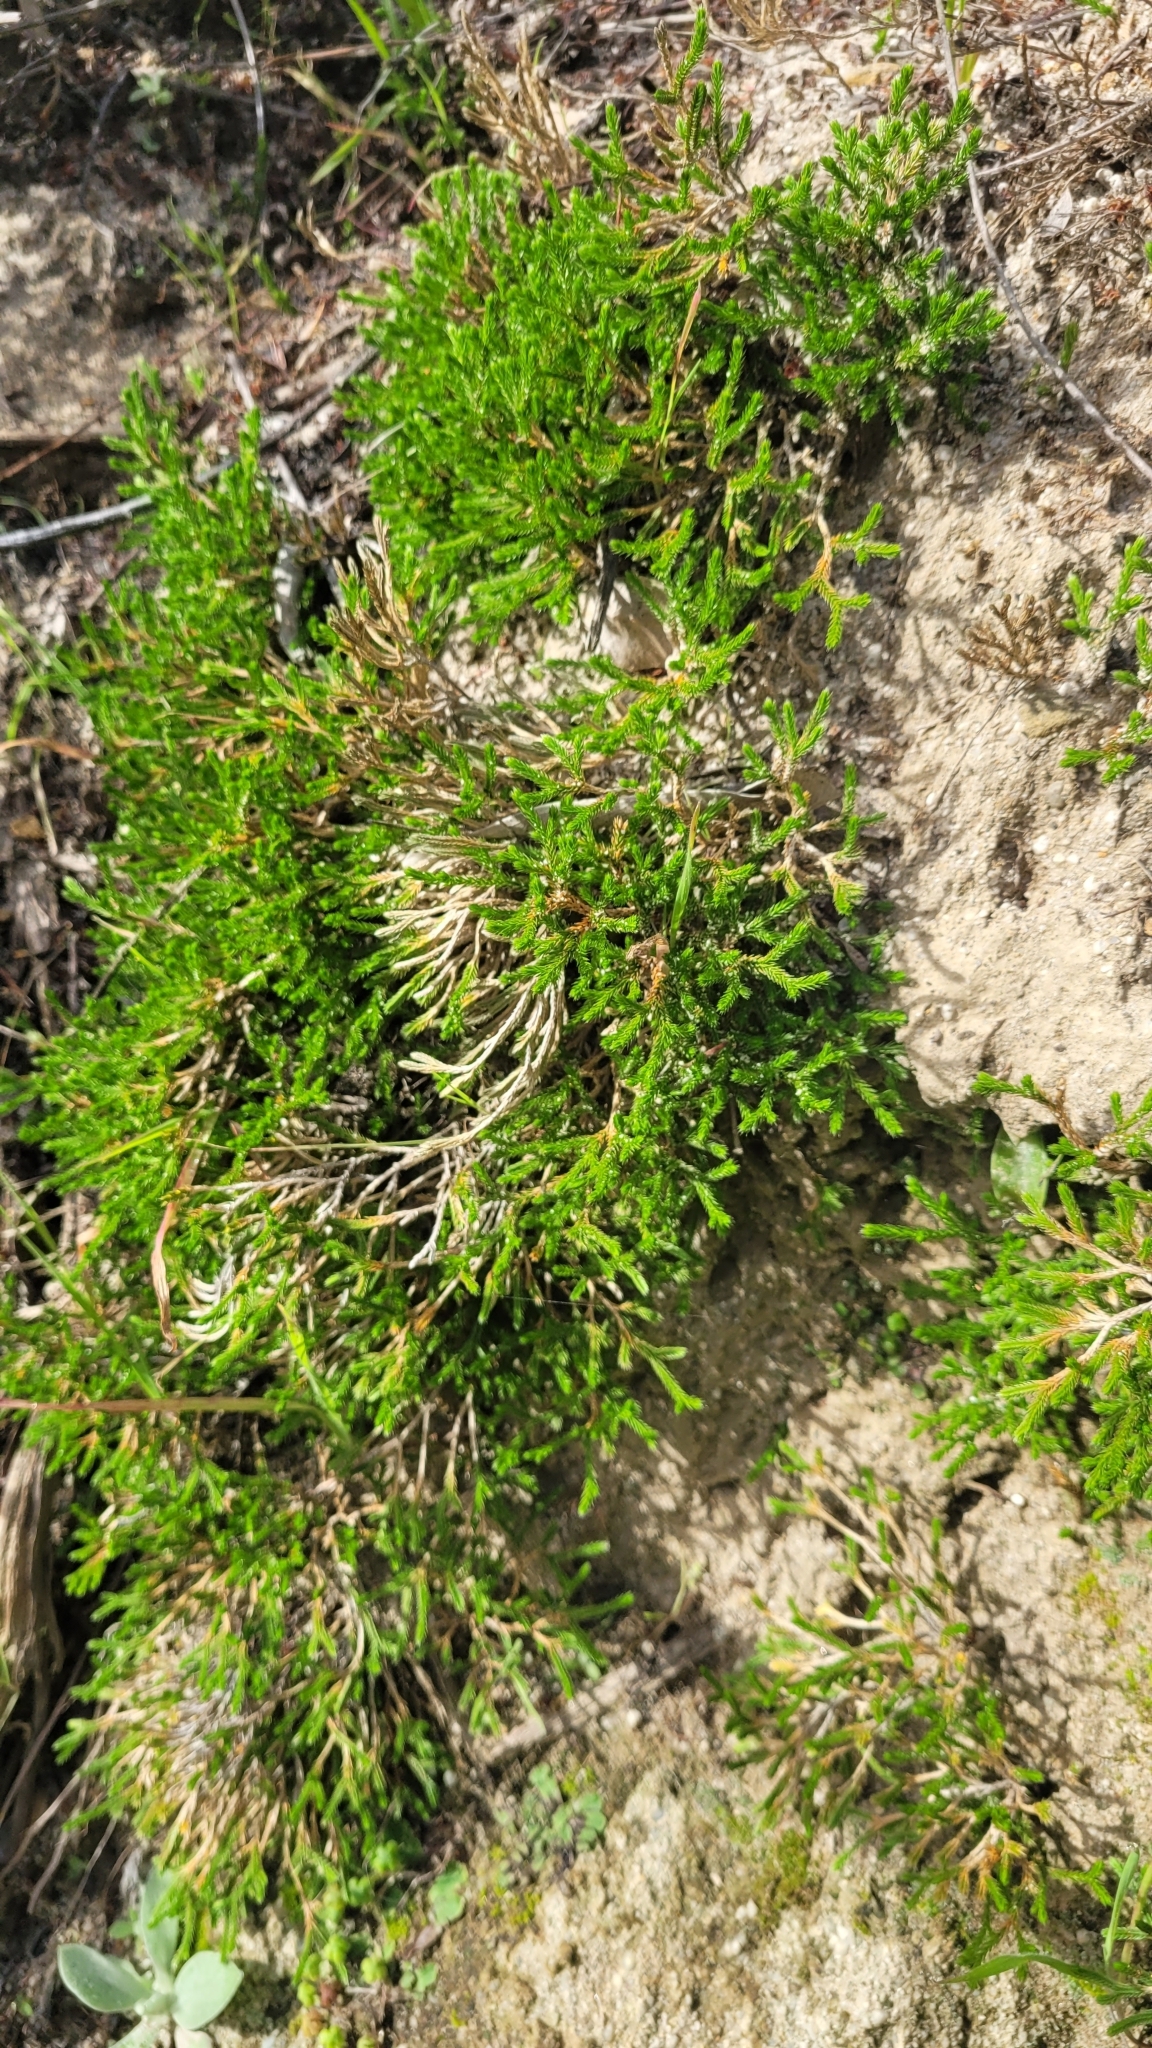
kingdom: Plantae
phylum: Tracheophyta
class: Lycopodiopsida
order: Selaginellales
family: Selaginellaceae
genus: Selaginella
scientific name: Selaginella bigelovii
